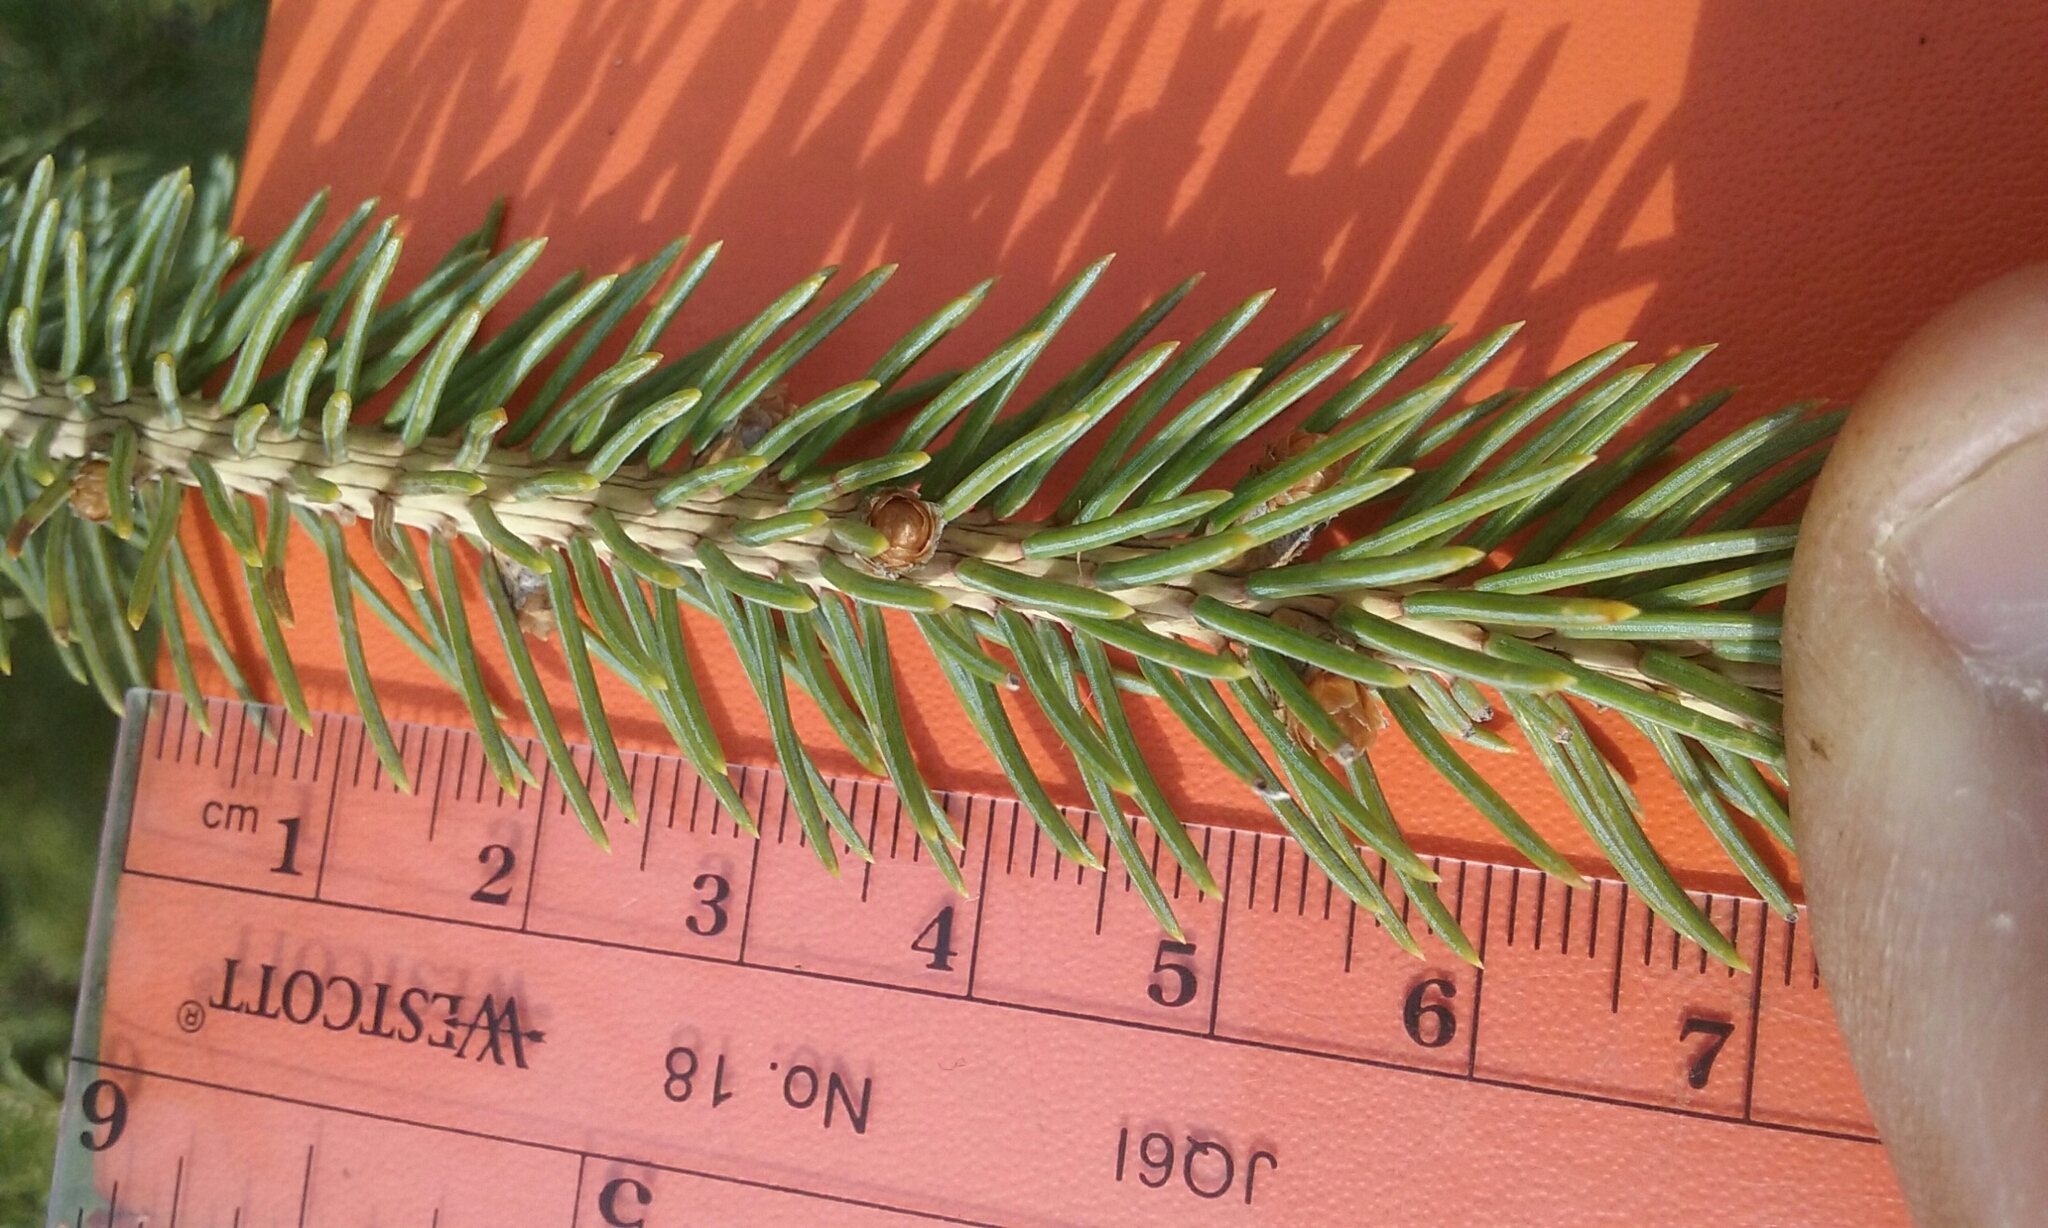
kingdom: Plantae
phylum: Tracheophyta
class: Pinopsida
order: Pinales
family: Pinaceae
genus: Picea
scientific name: Picea glauca
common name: White spruce
